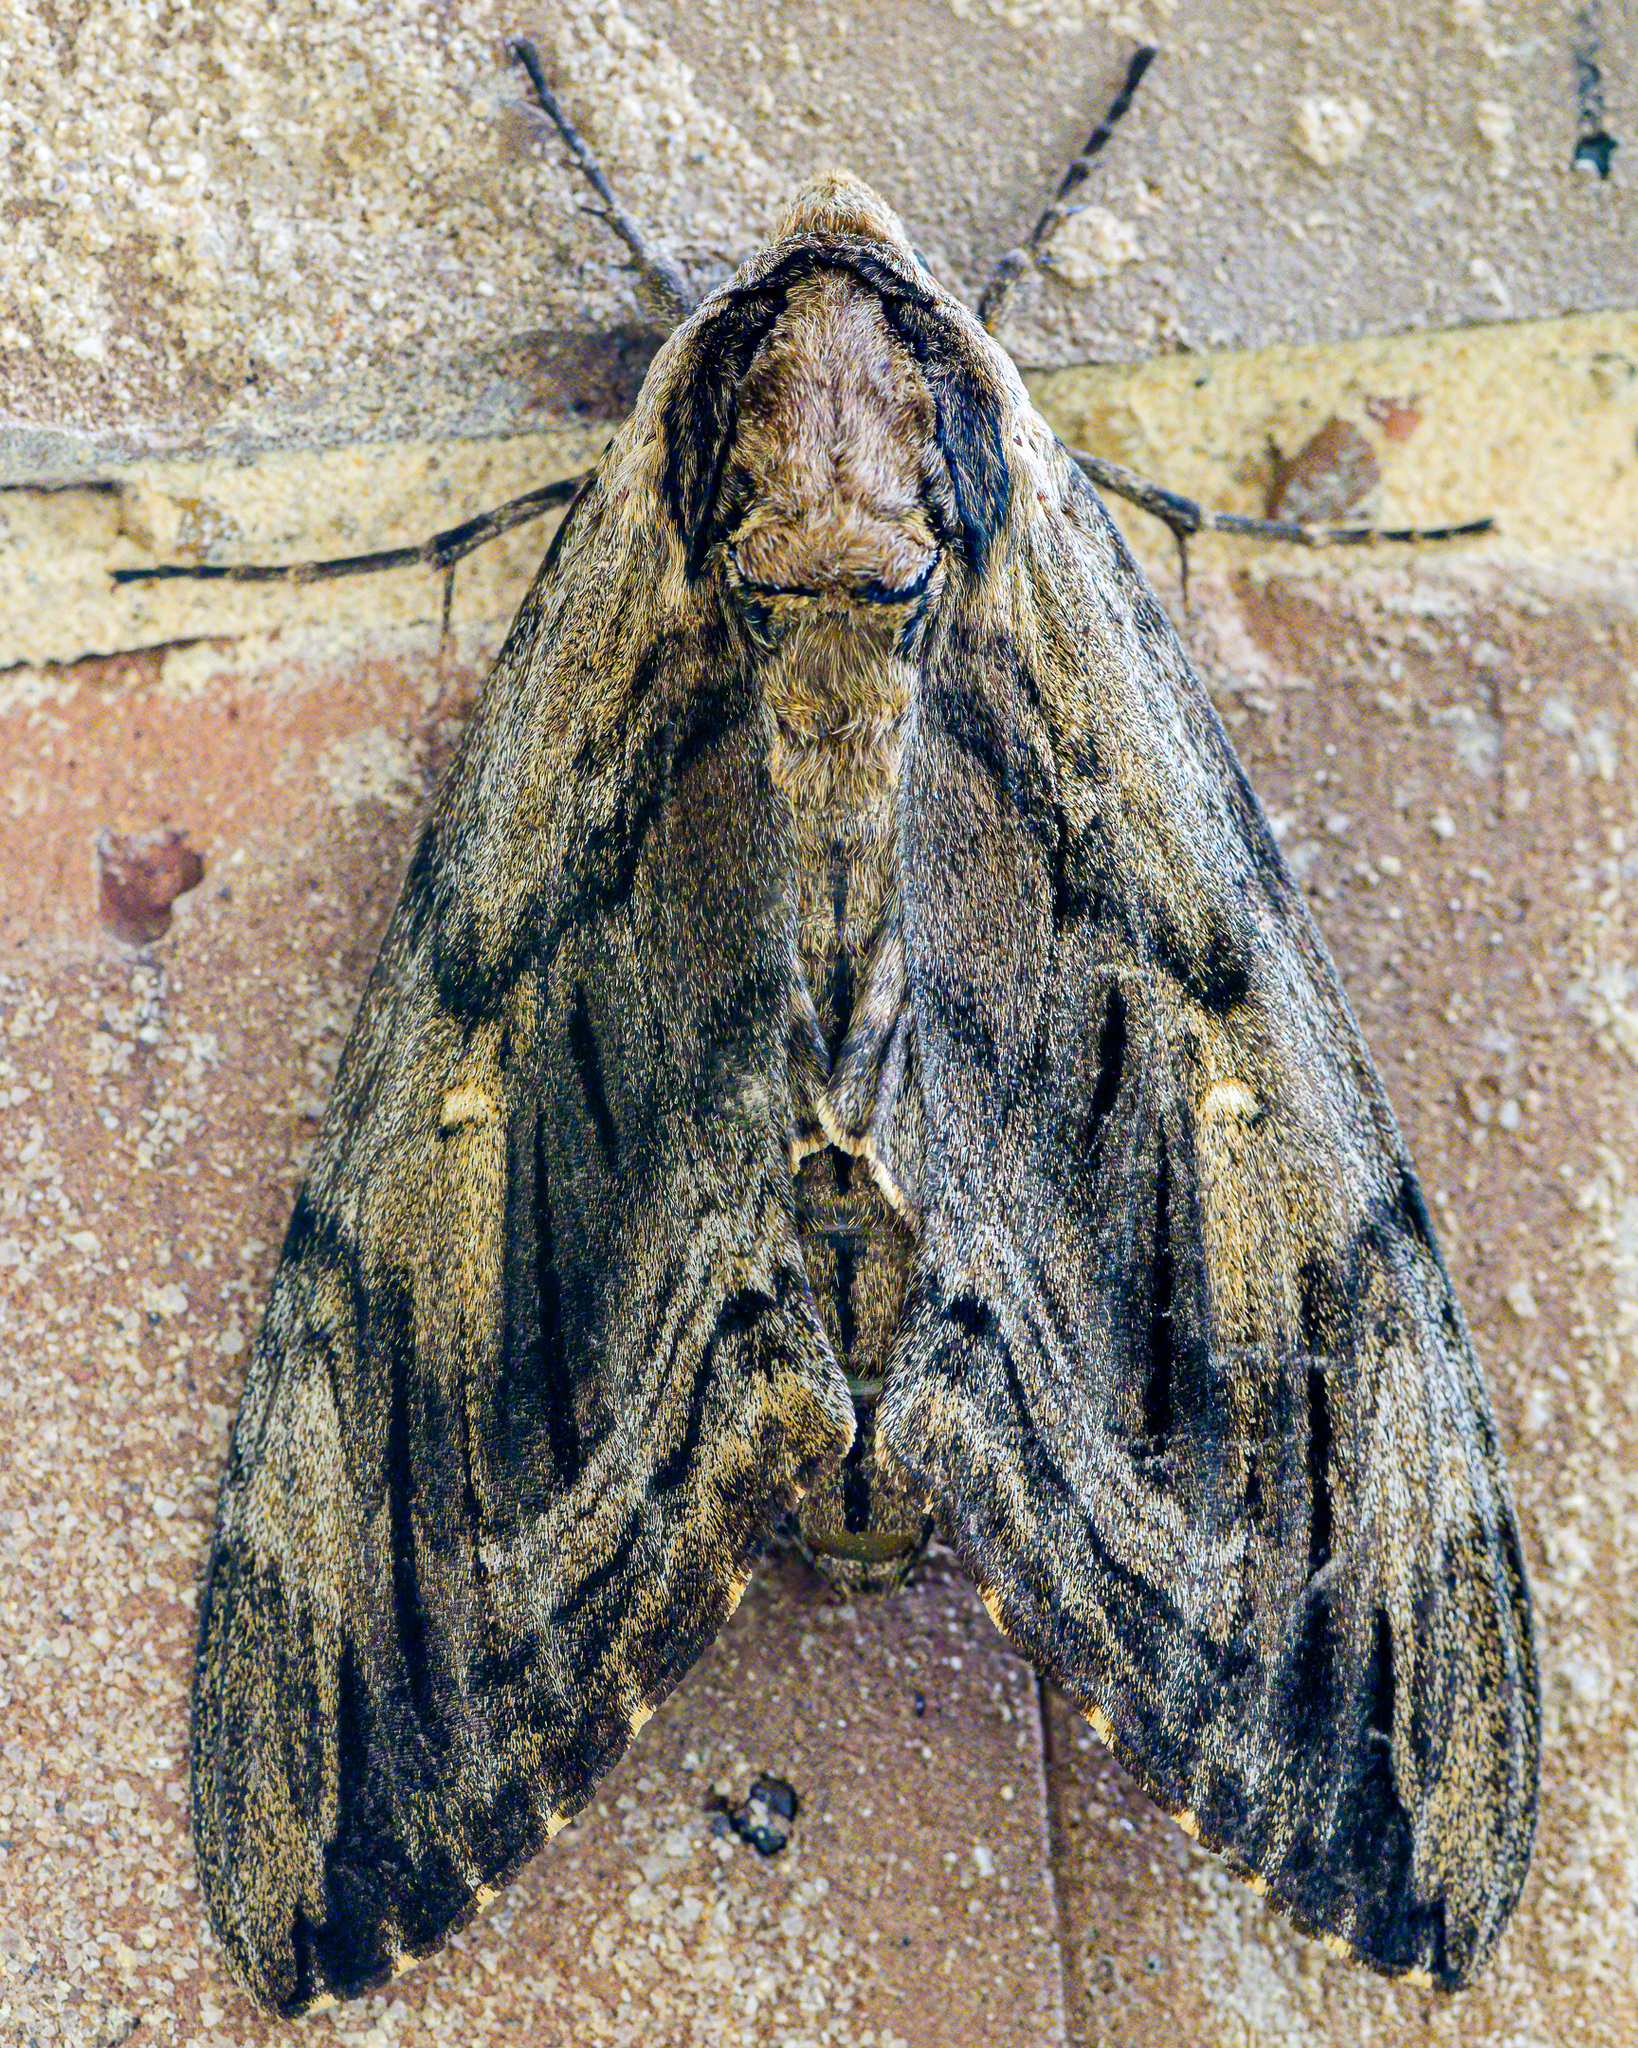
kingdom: Animalia
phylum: Arthropoda
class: Insecta
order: Lepidoptera
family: Sphingidae
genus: Ceratomia
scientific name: Ceratomia amyntor
